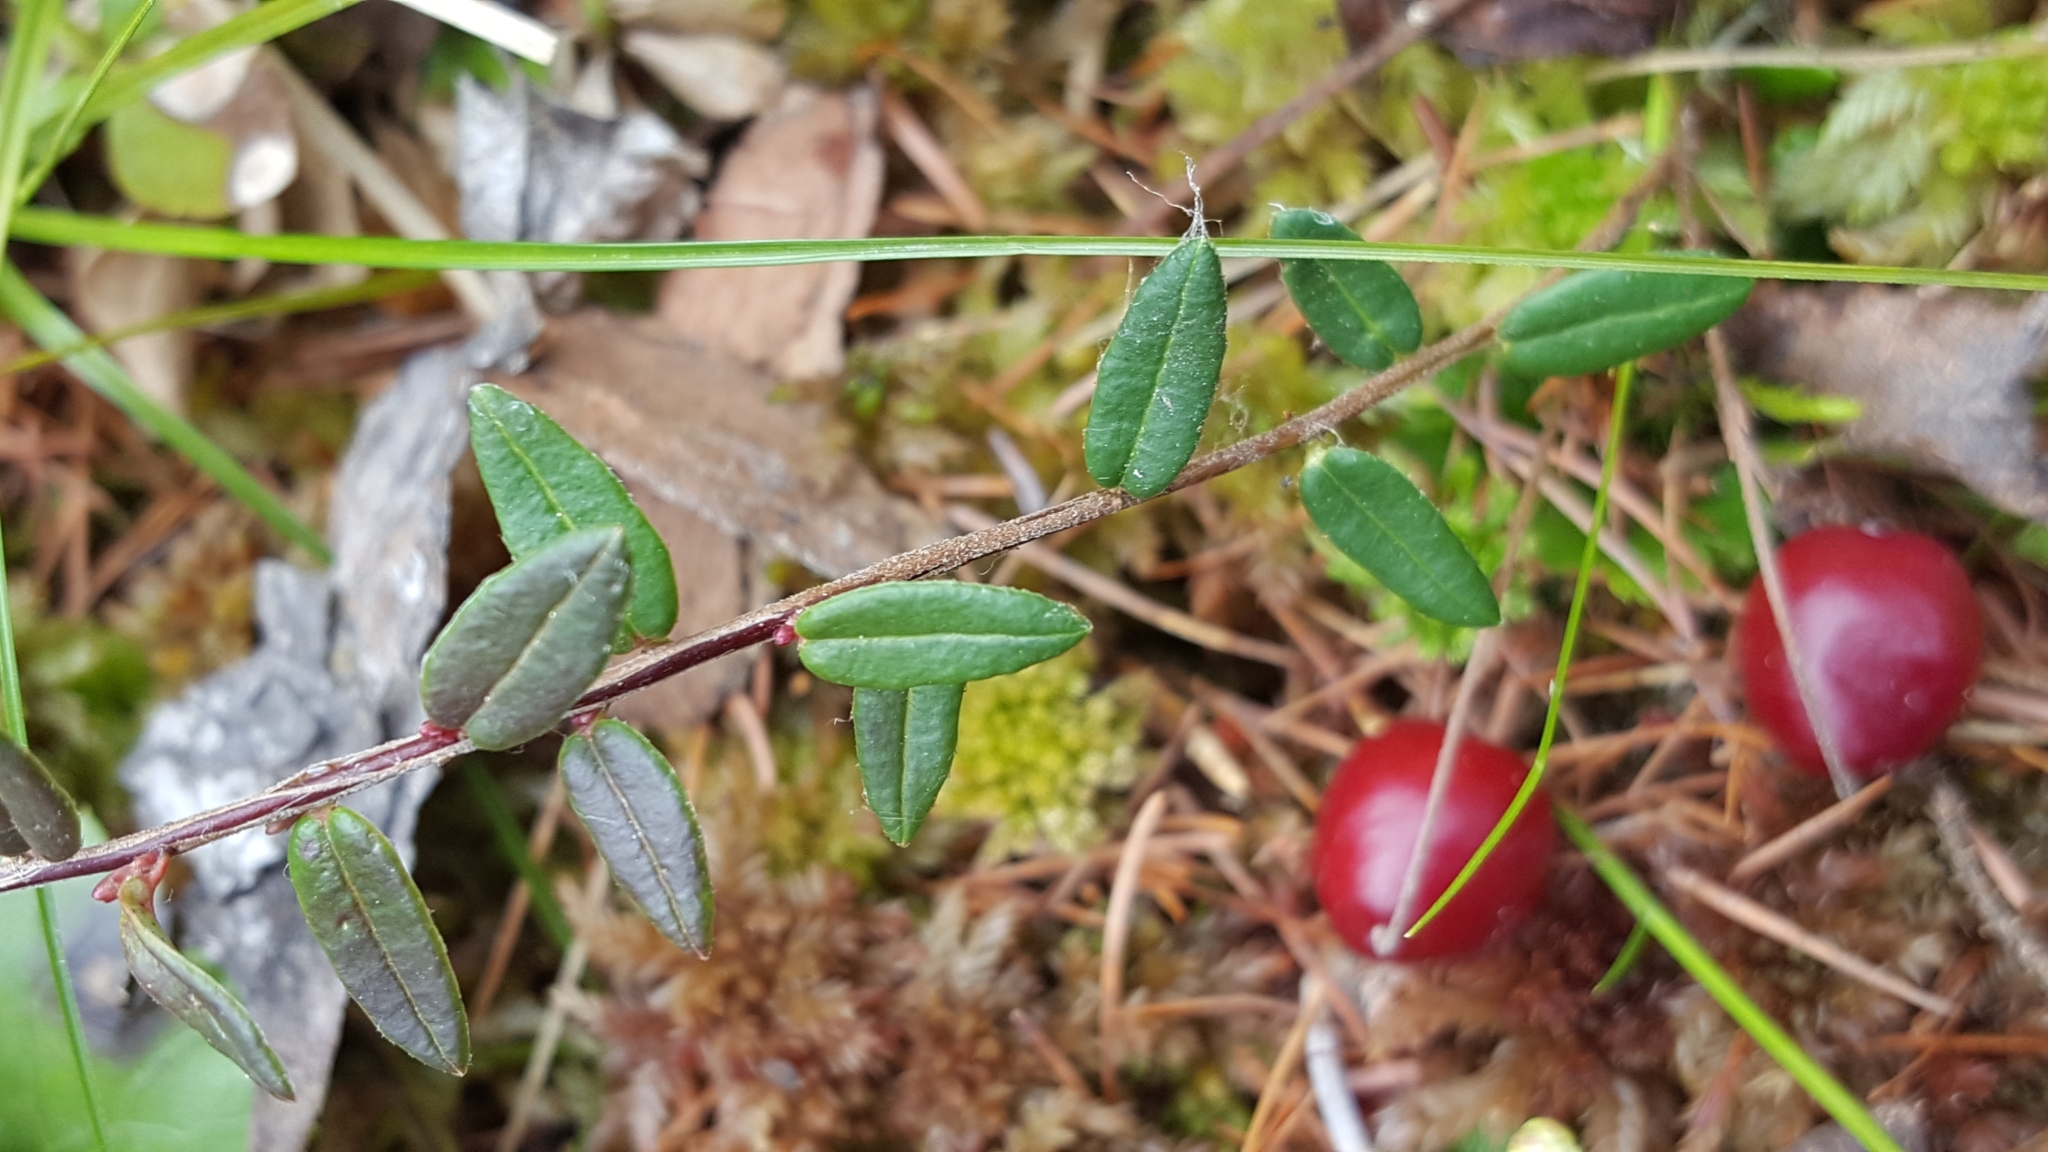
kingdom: Plantae
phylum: Tracheophyta
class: Magnoliopsida
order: Ericales
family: Ericaceae
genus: Vaccinium
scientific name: Vaccinium oxycoccos
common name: Cranberry
